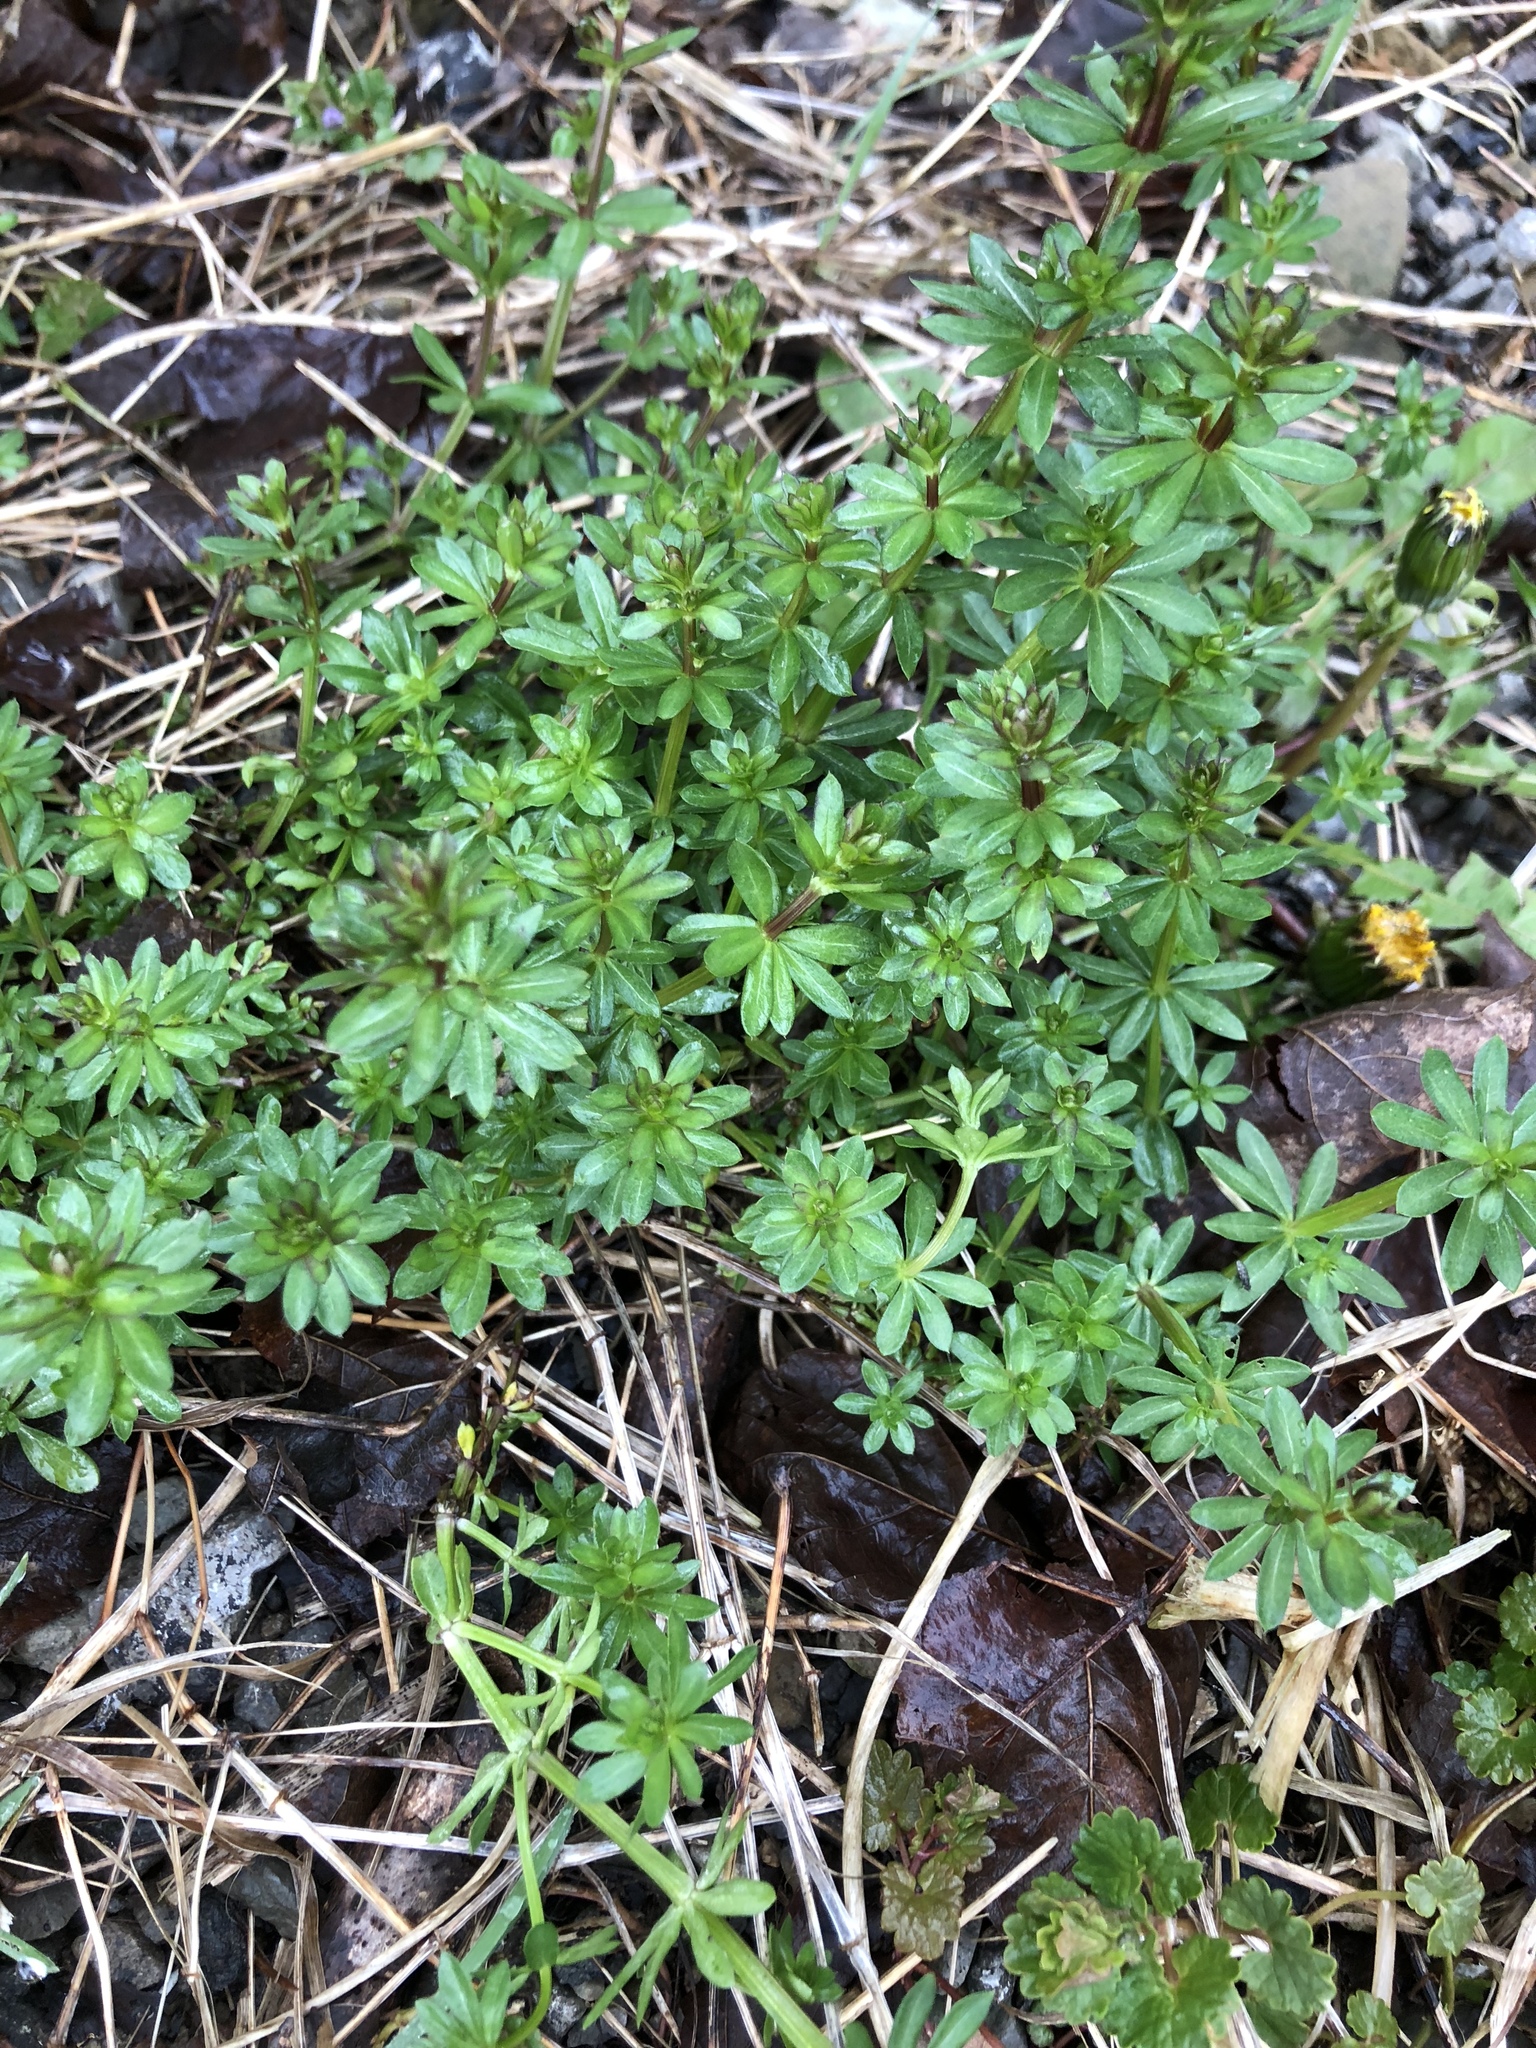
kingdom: Plantae
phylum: Tracheophyta
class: Magnoliopsida
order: Gentianales
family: Rubiaceae
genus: Galium
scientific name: Galium mollugo
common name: Hedge bedstraw
